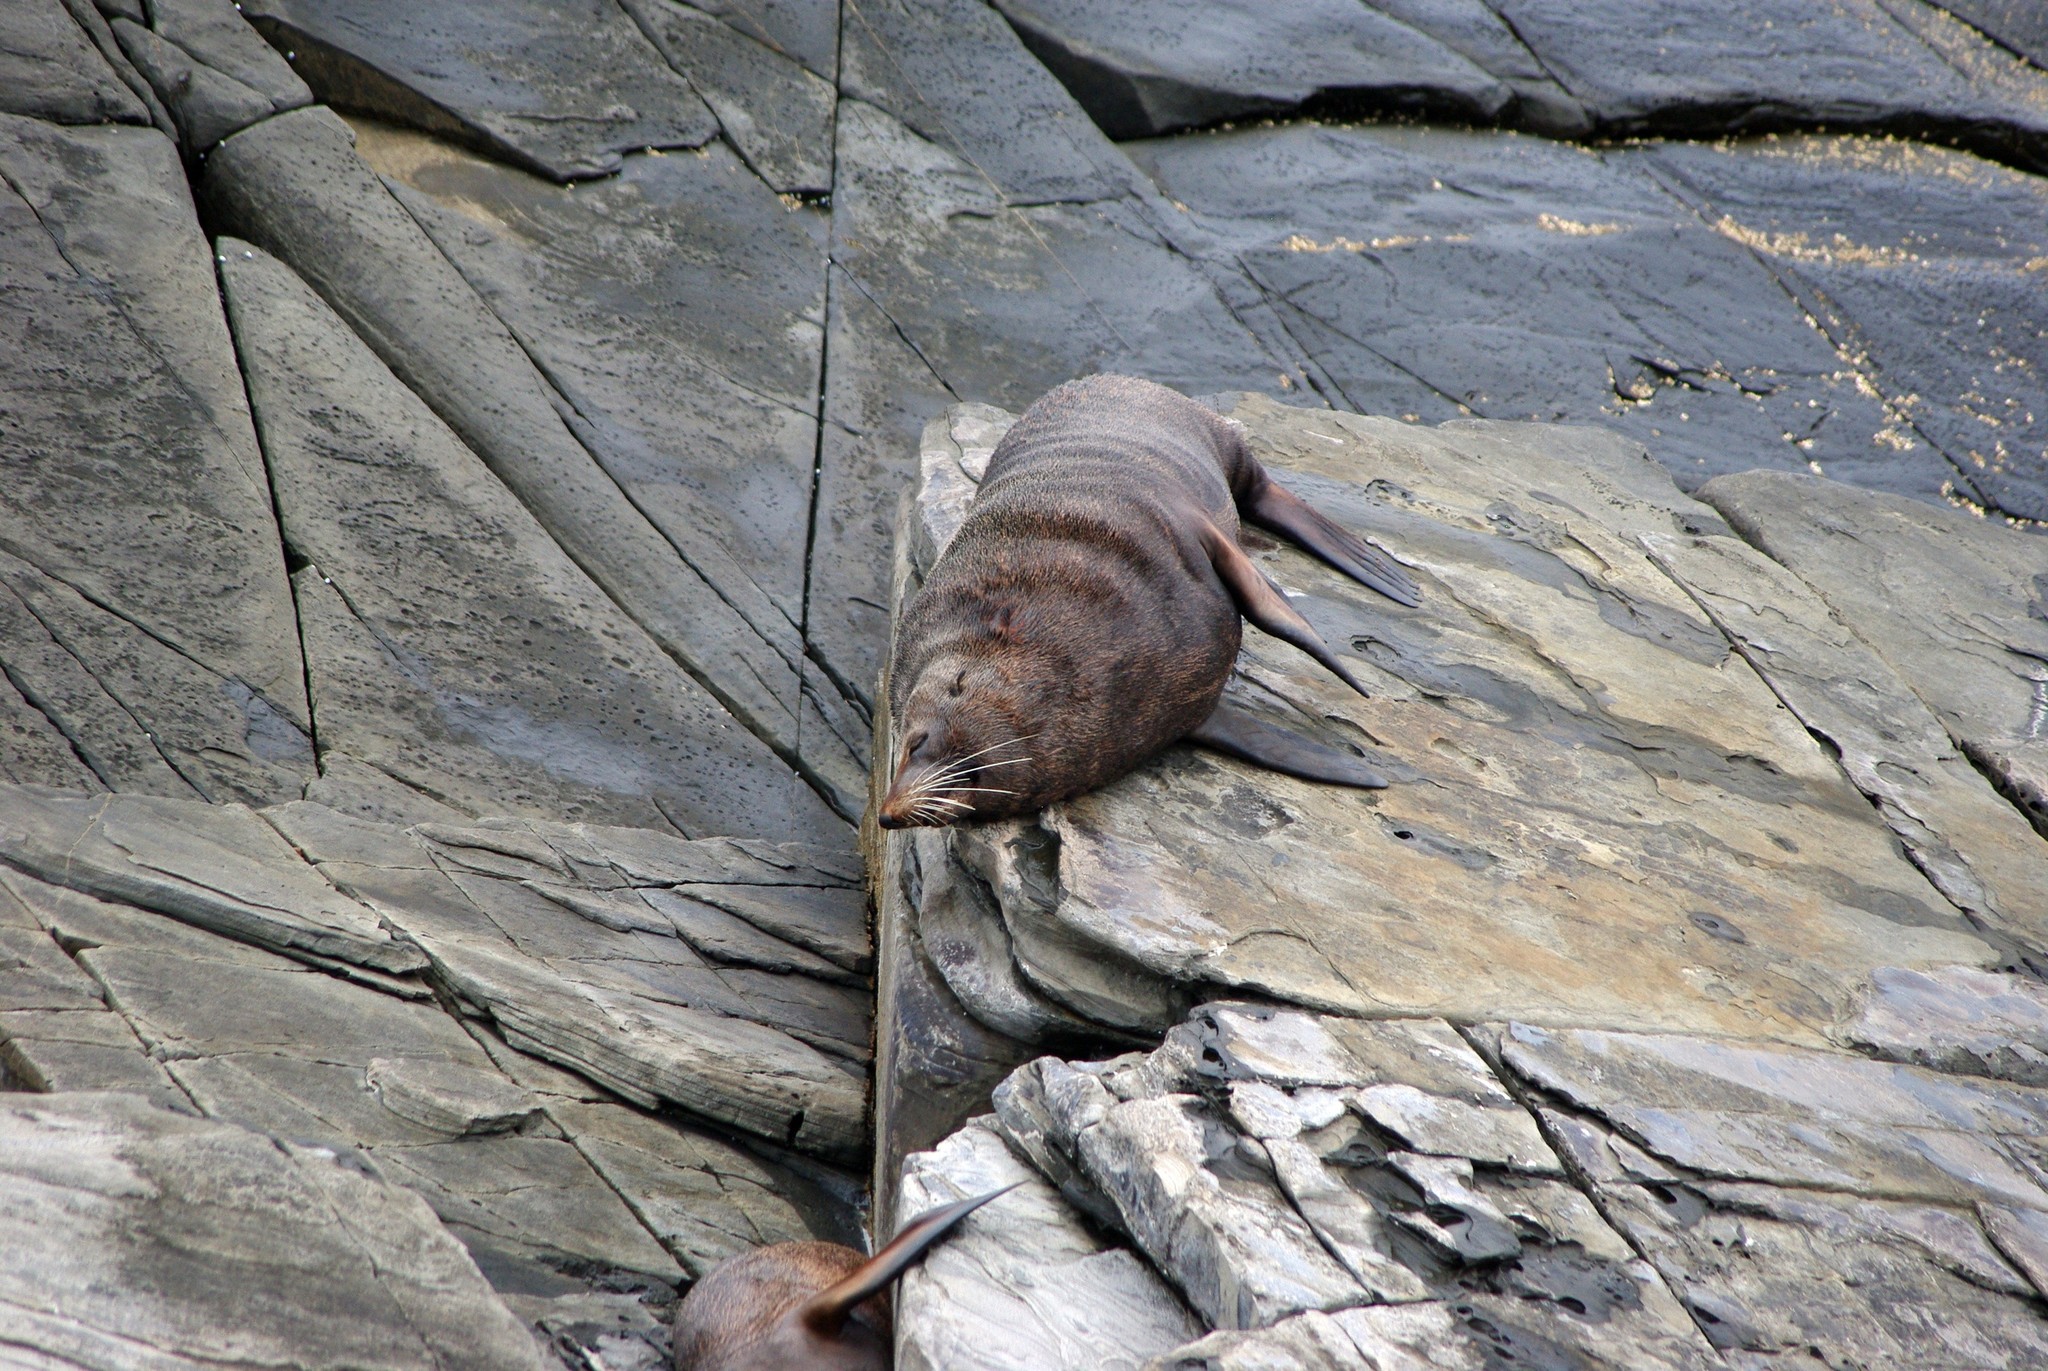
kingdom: Animalia
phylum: Chordata
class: Mammalia
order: Carnivora
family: Otariidae
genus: Arctocephalus
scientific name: Arctocephalus forsteri
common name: New zealand fur seal
